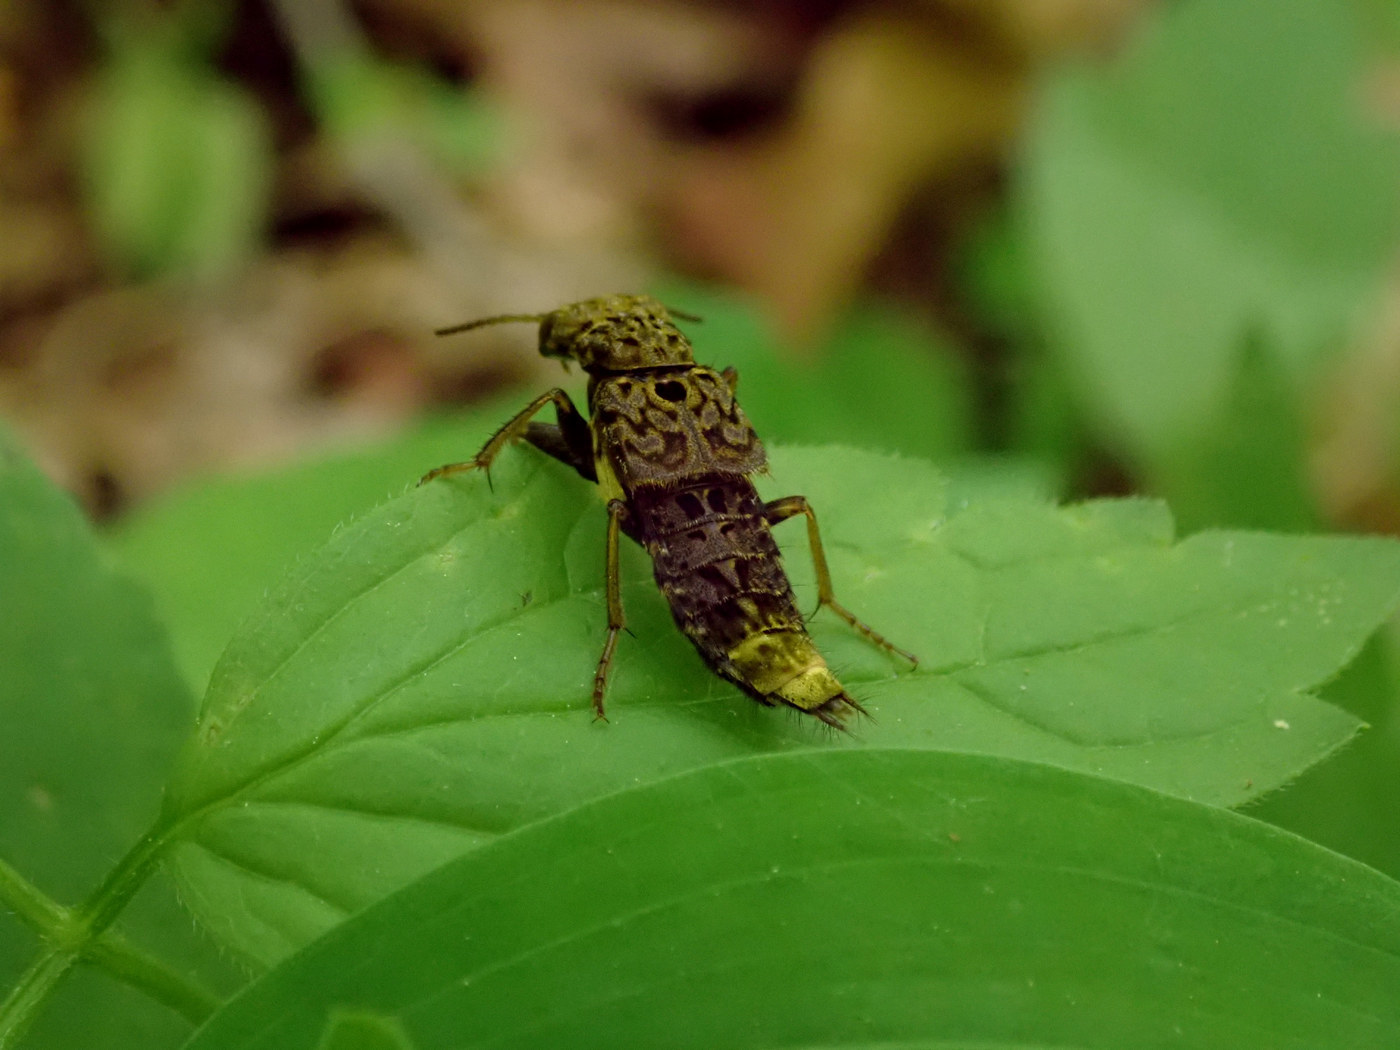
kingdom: Animalia
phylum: Arthropoda
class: Insecta
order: Coleoptera
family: Staphylinidae
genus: Ontholestes
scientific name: Ontholestes cingulatus
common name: Gold-and-brown rove beetle
